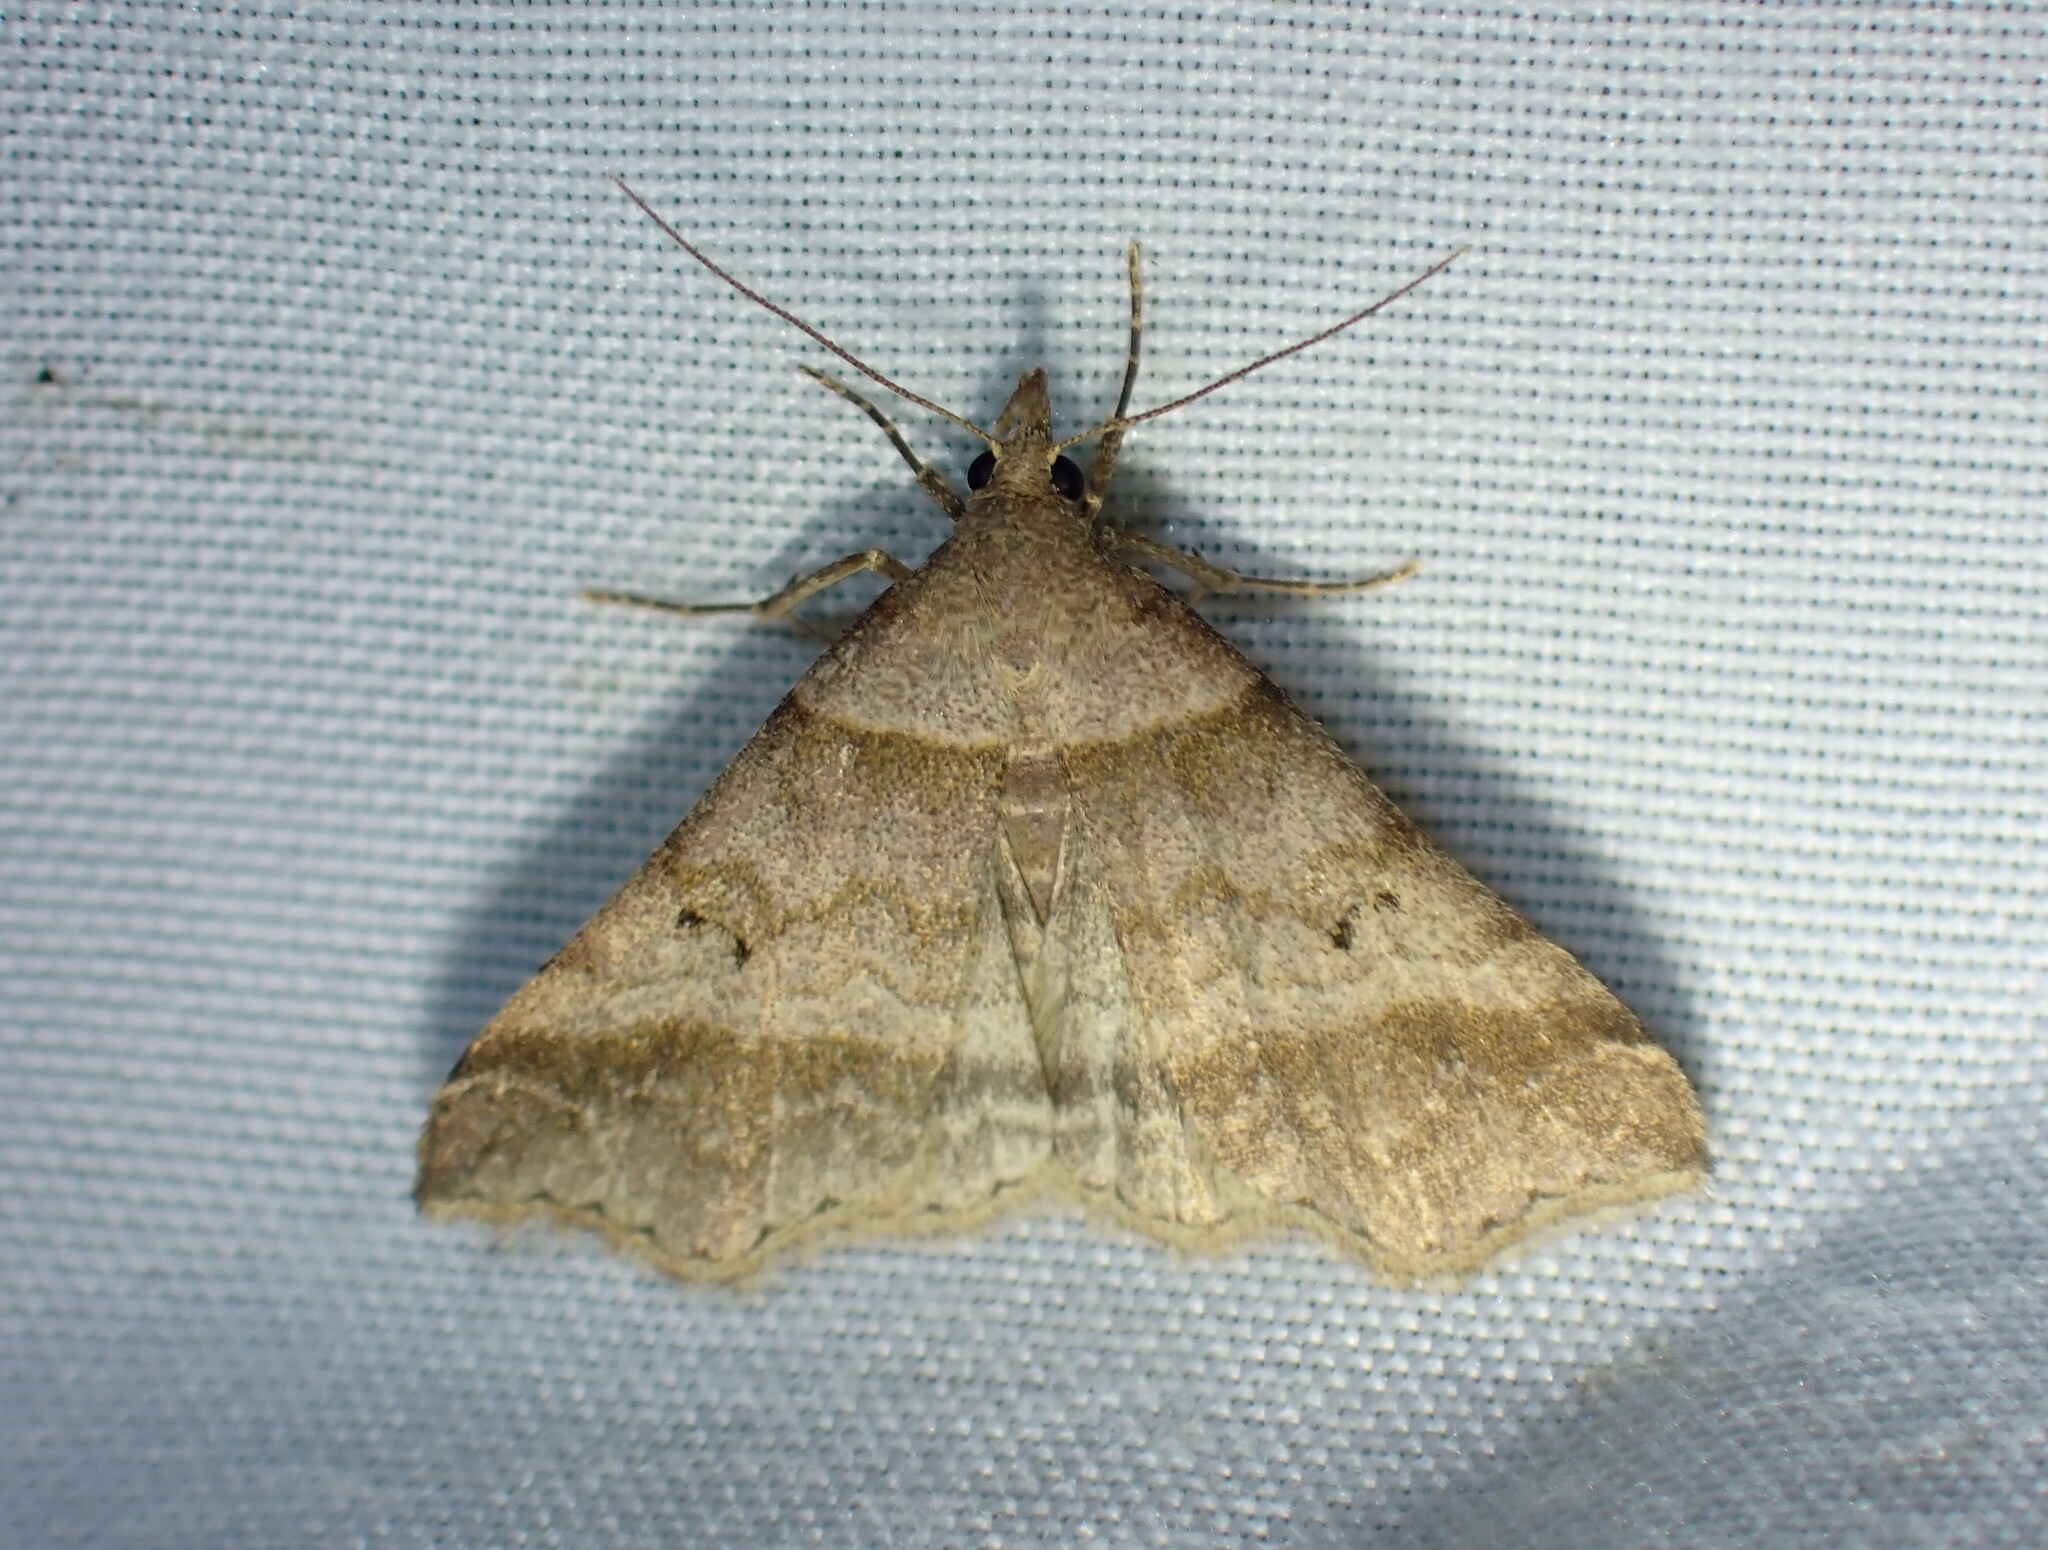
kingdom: Animalia
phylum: Arthropoda
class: Insecta
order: Lepidoptera
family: Erebidae
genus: Phaeolita
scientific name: Phaeolita pyramusalis
